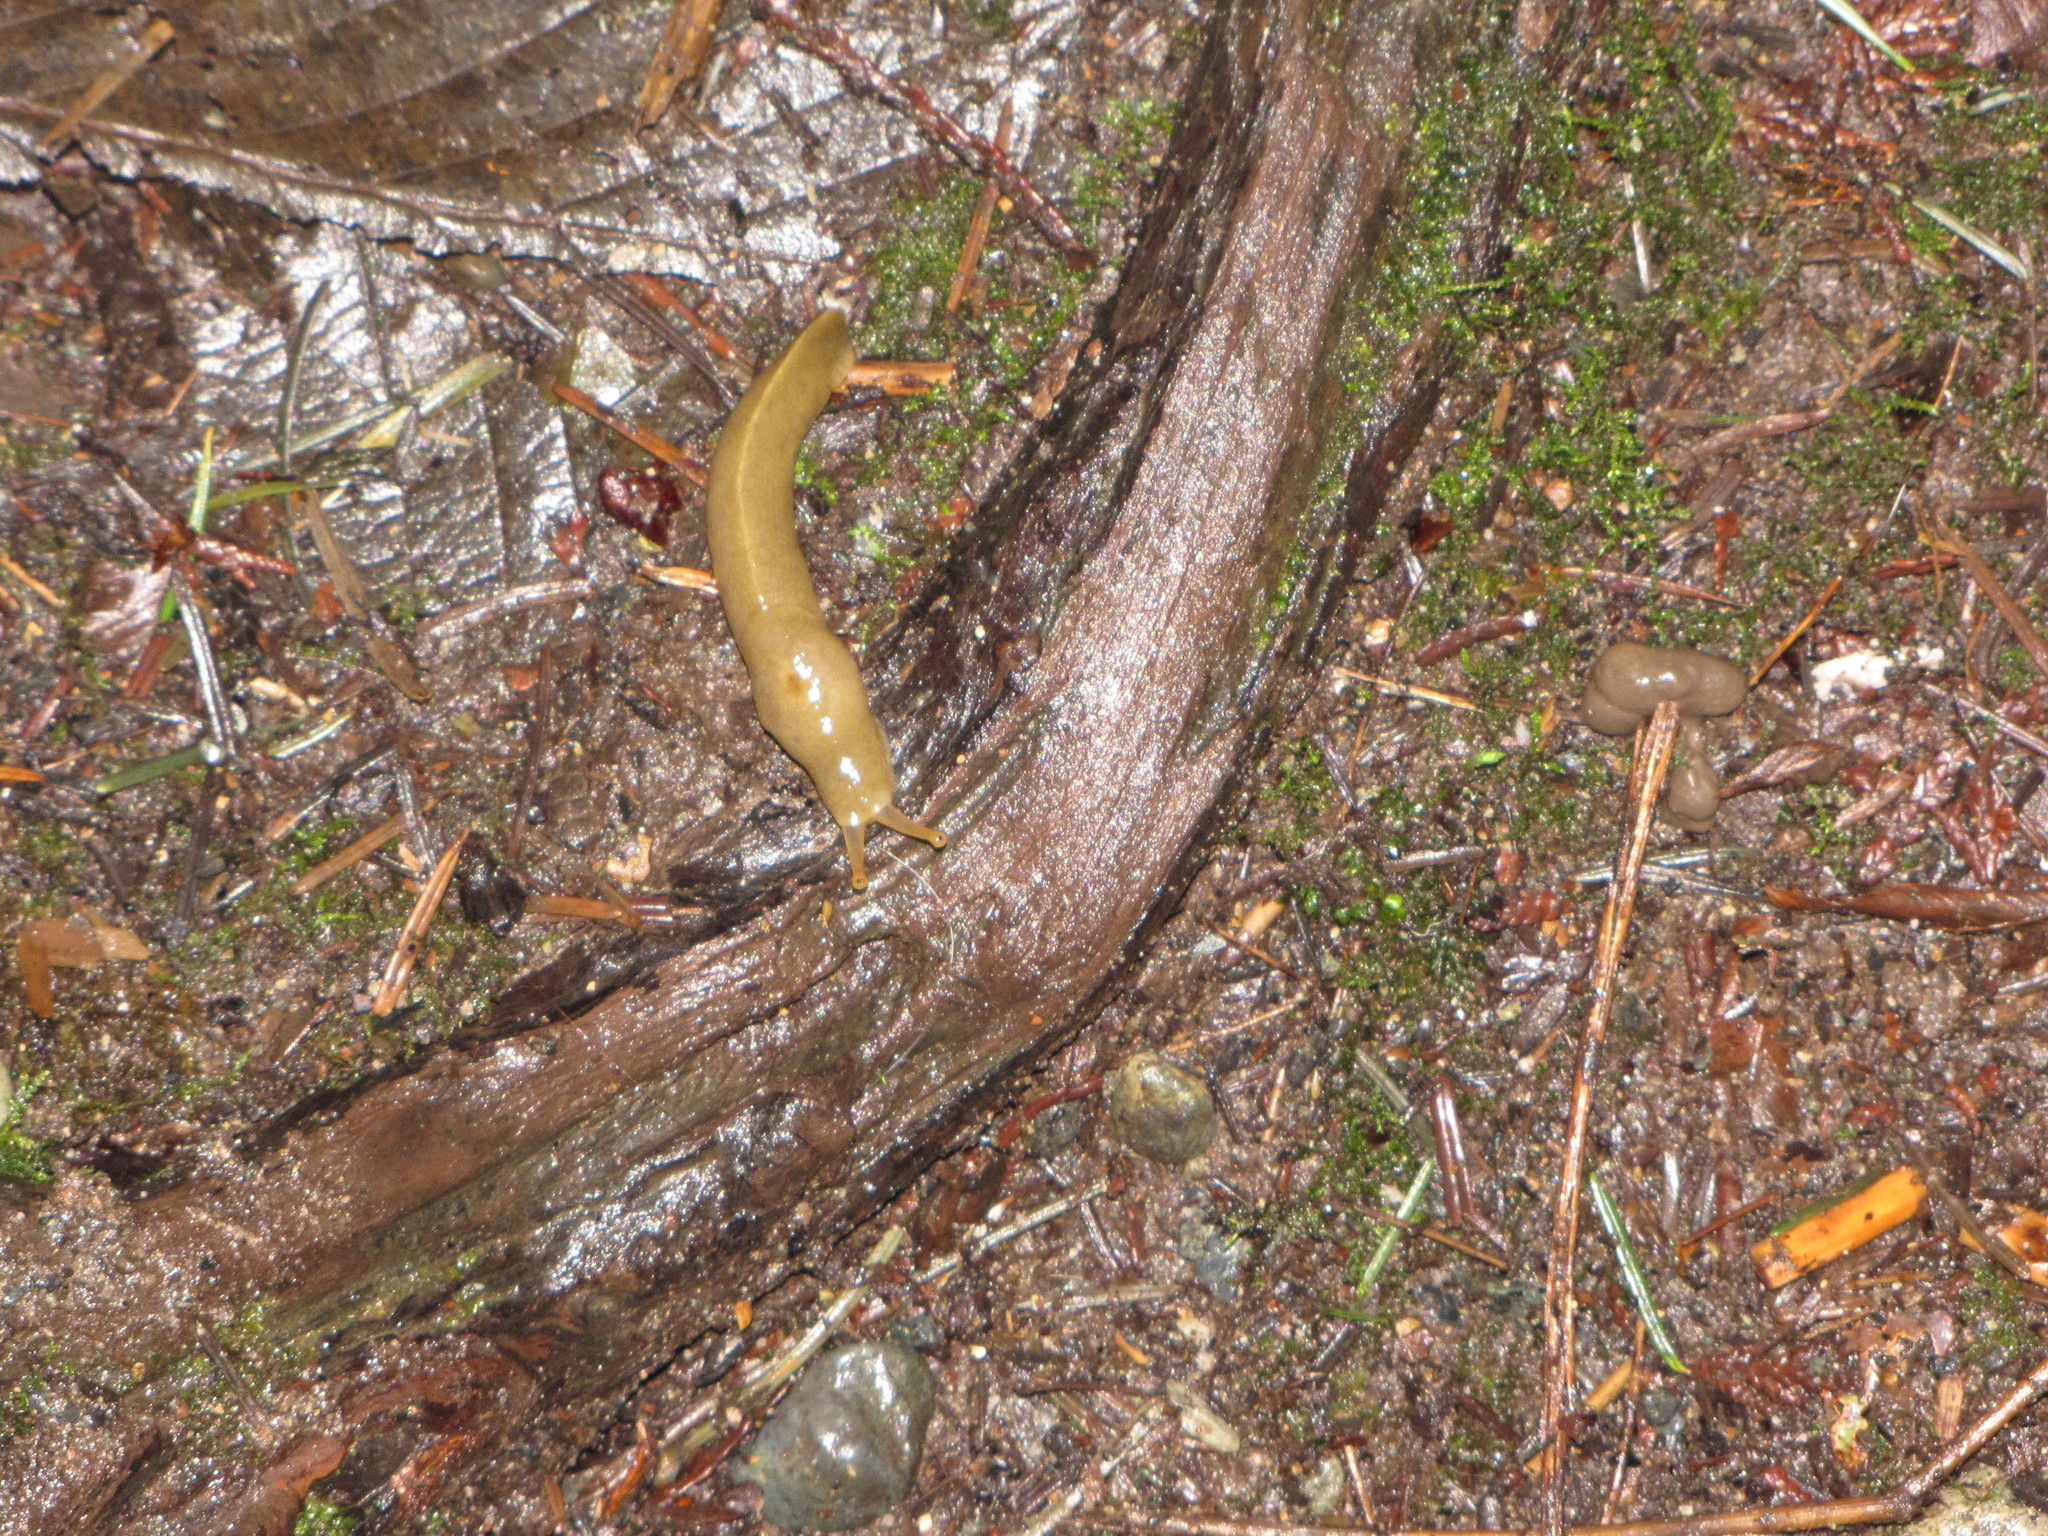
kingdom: Animalia
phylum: Mollusca
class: Gastropoda
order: Stylommatophora
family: Ariolimacidae
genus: Ariolimax
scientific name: Ariolimax columbianus
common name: Pacific banana slug
